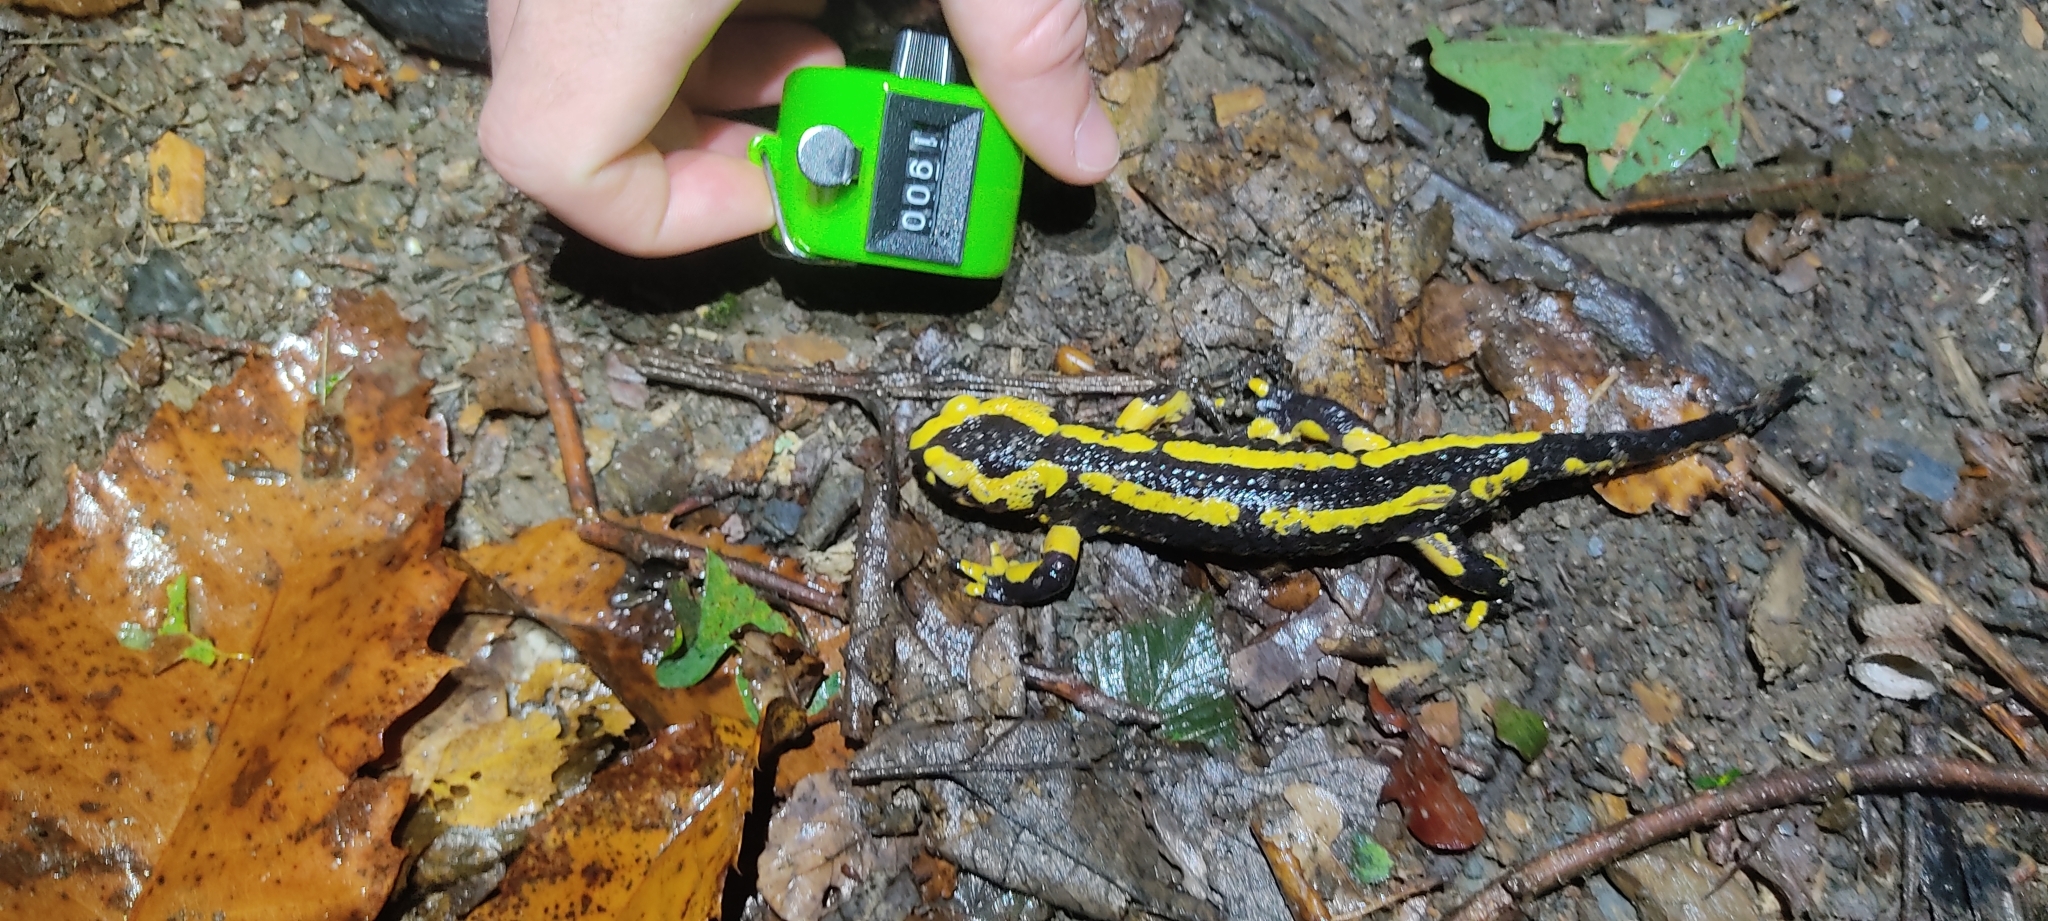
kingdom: Animalia
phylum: Chordata
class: Amphibia
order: Caudata
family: Salamandridae
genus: Salamandra
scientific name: Salamandra salamandra
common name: Fire salamander
